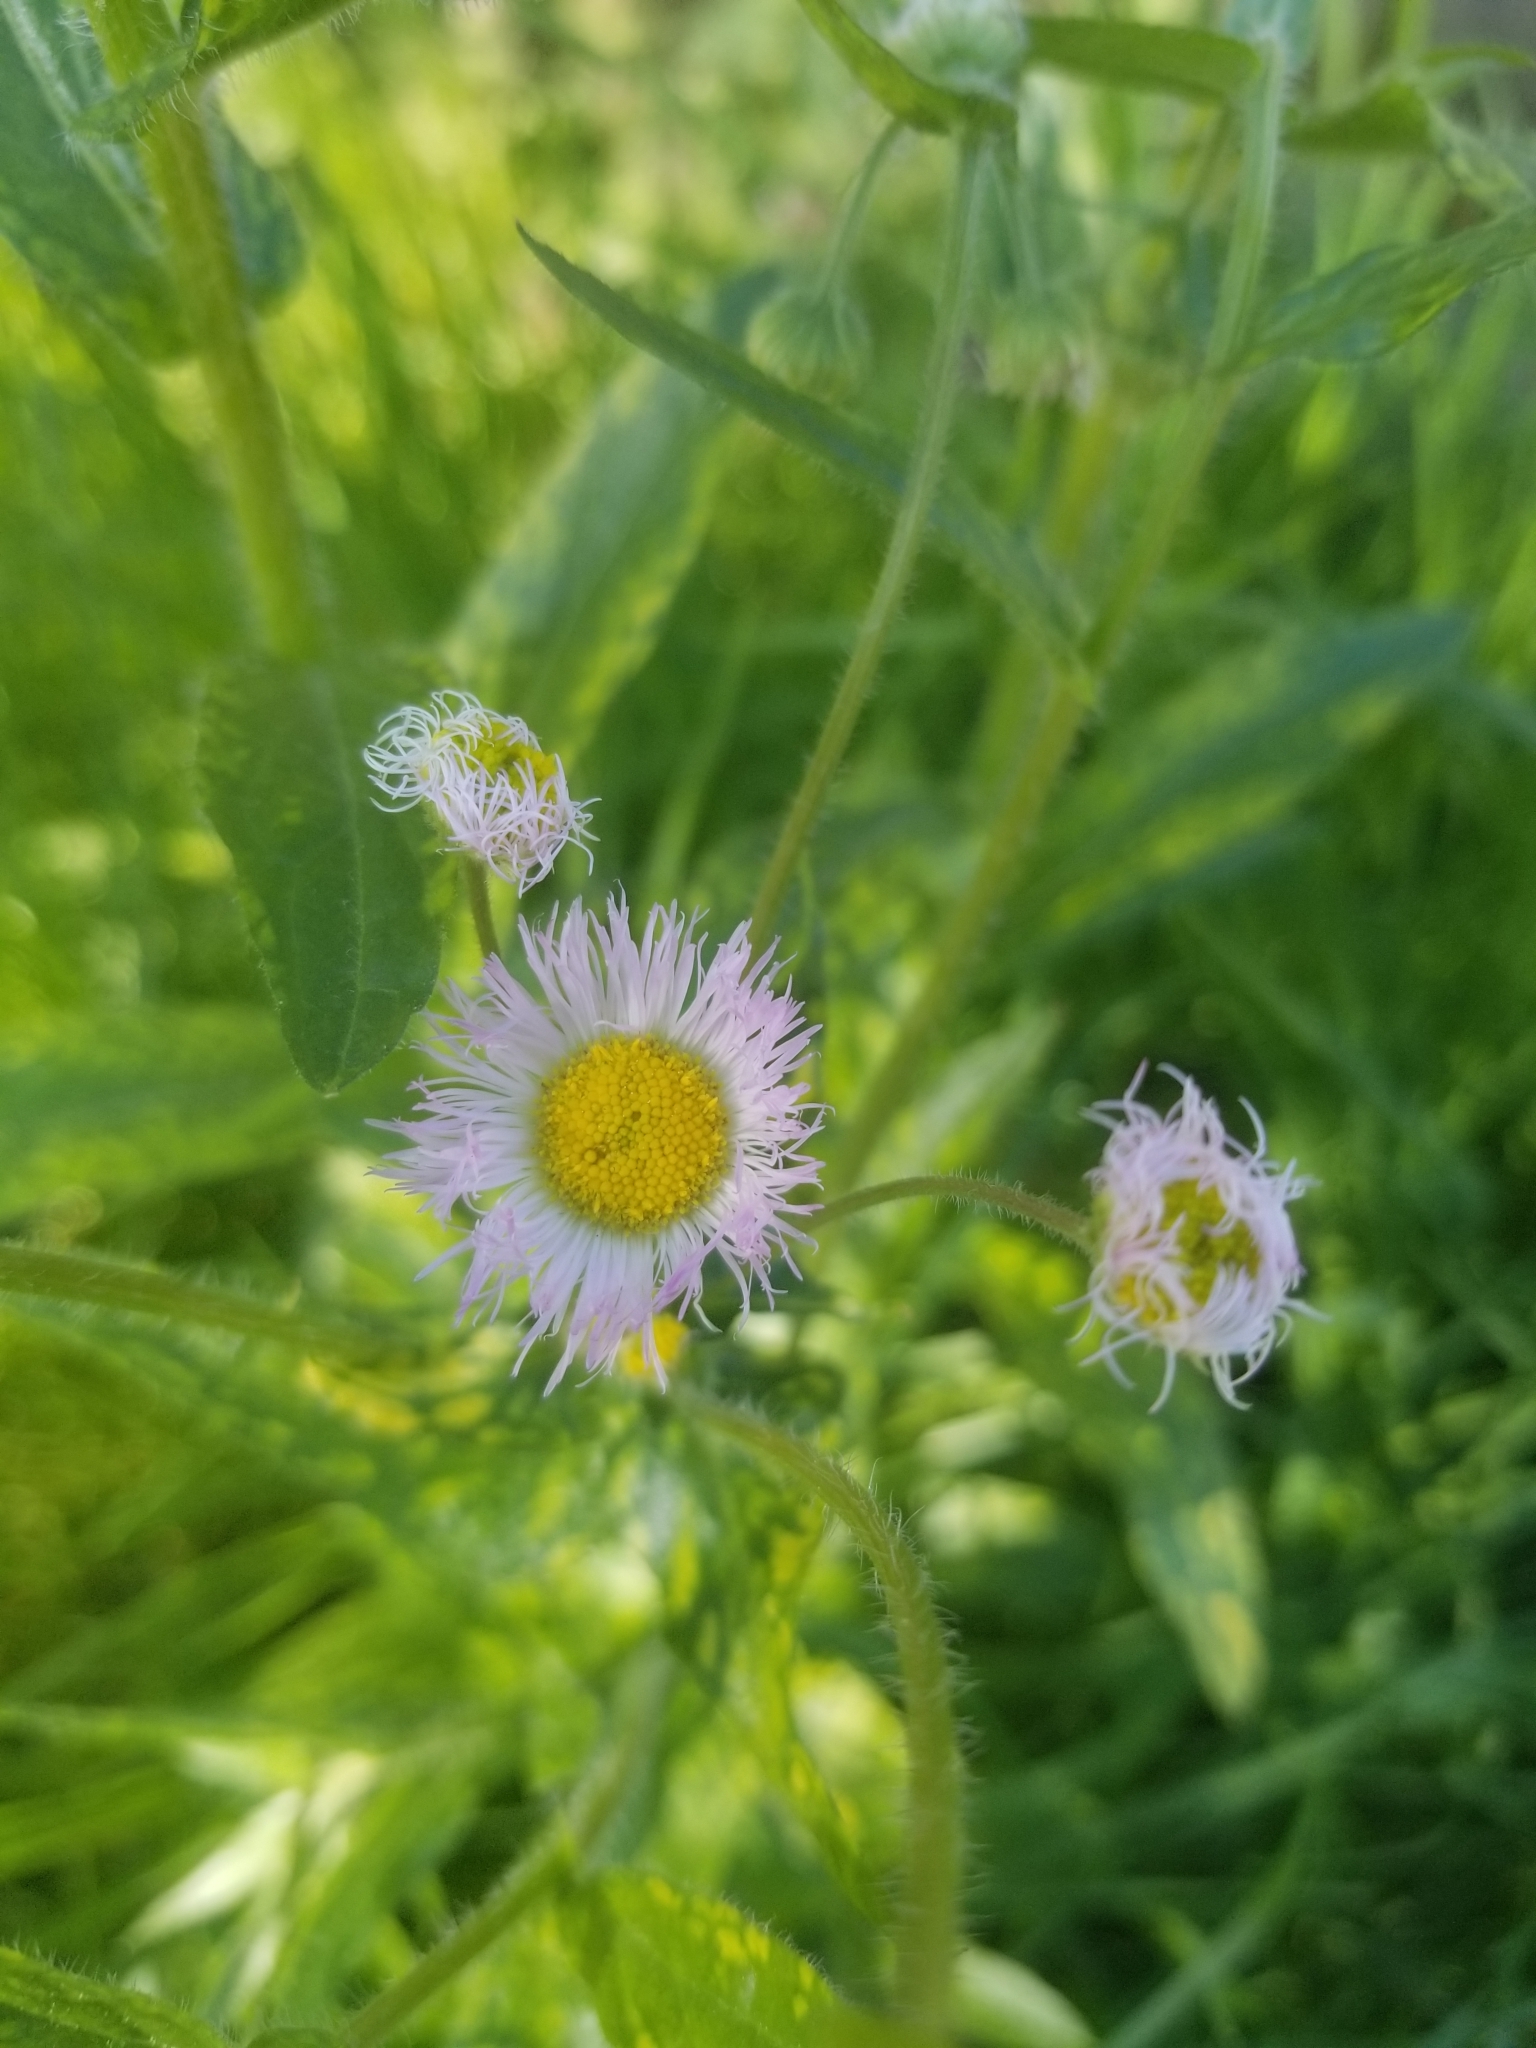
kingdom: Plantae
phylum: Tracheophyta
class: Magnoliopsida
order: Asterales
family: Asteraceae
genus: Erigeron
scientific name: Erigeron philadelphicus
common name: Robin's-plantain
